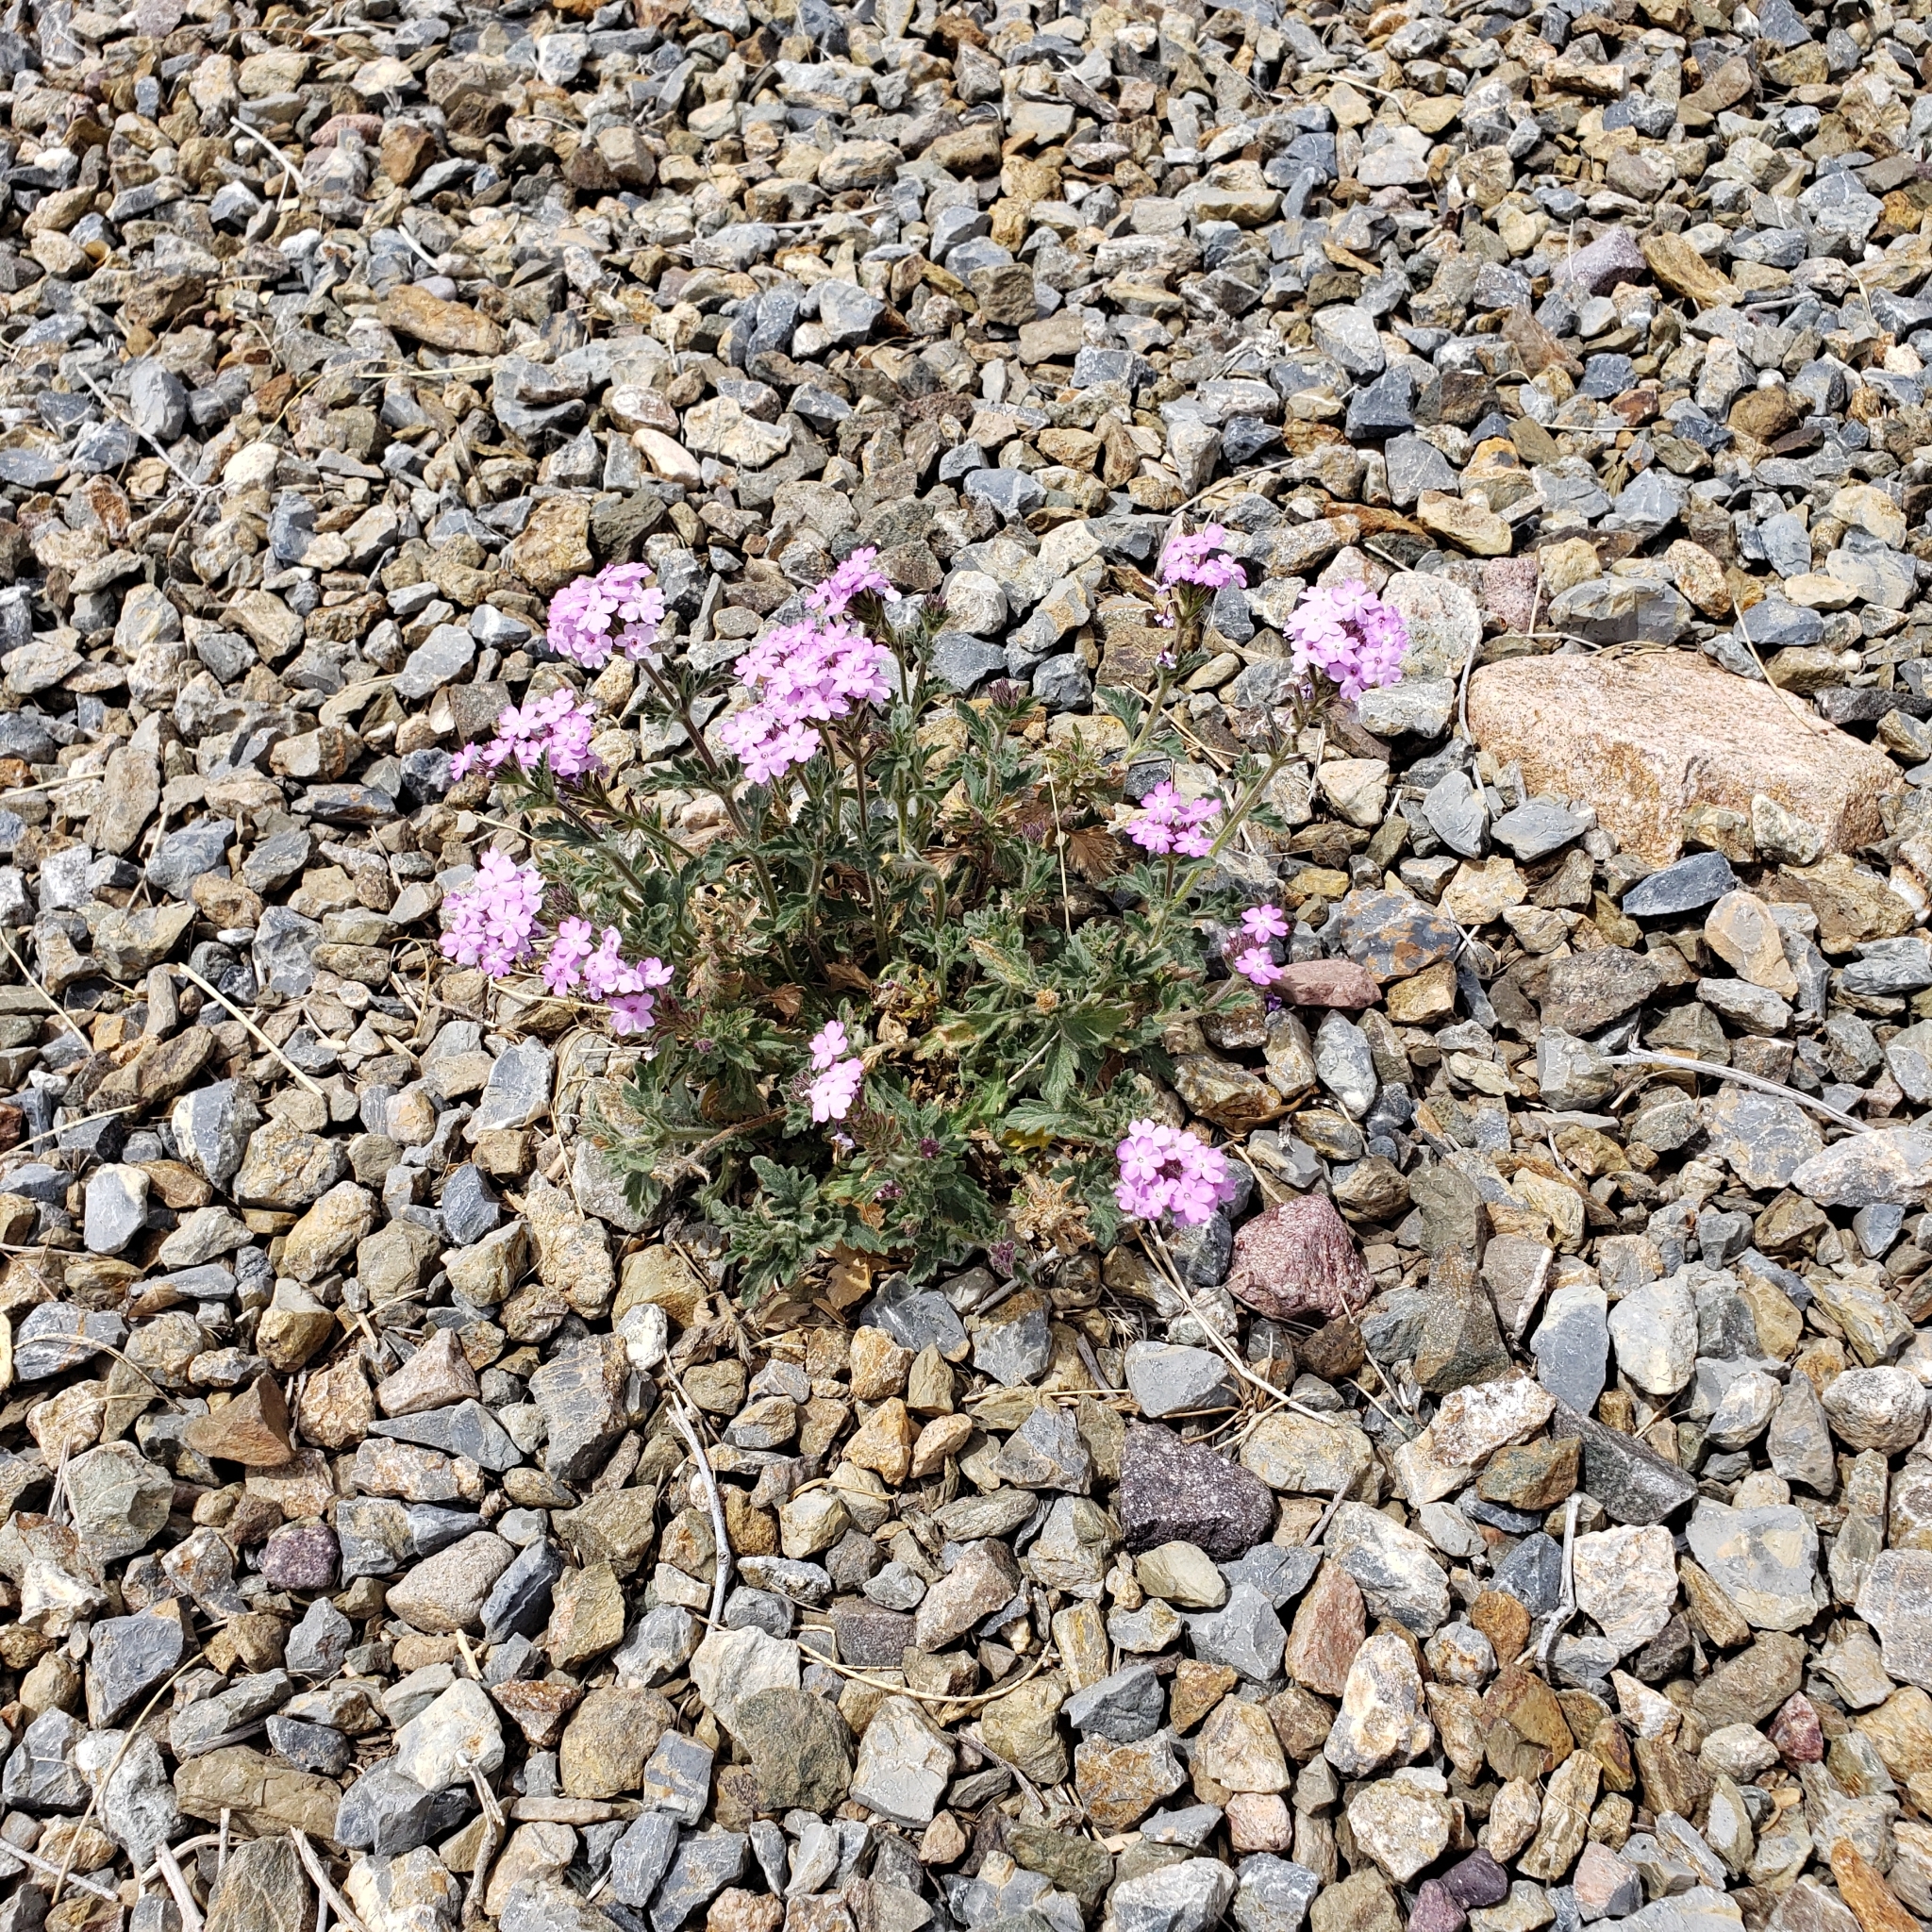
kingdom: Plantae
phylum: Tracheophyta
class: Magnoliopsida
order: Lamiales
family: Verbenaceae
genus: Verbena
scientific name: Verbena gooddingii
